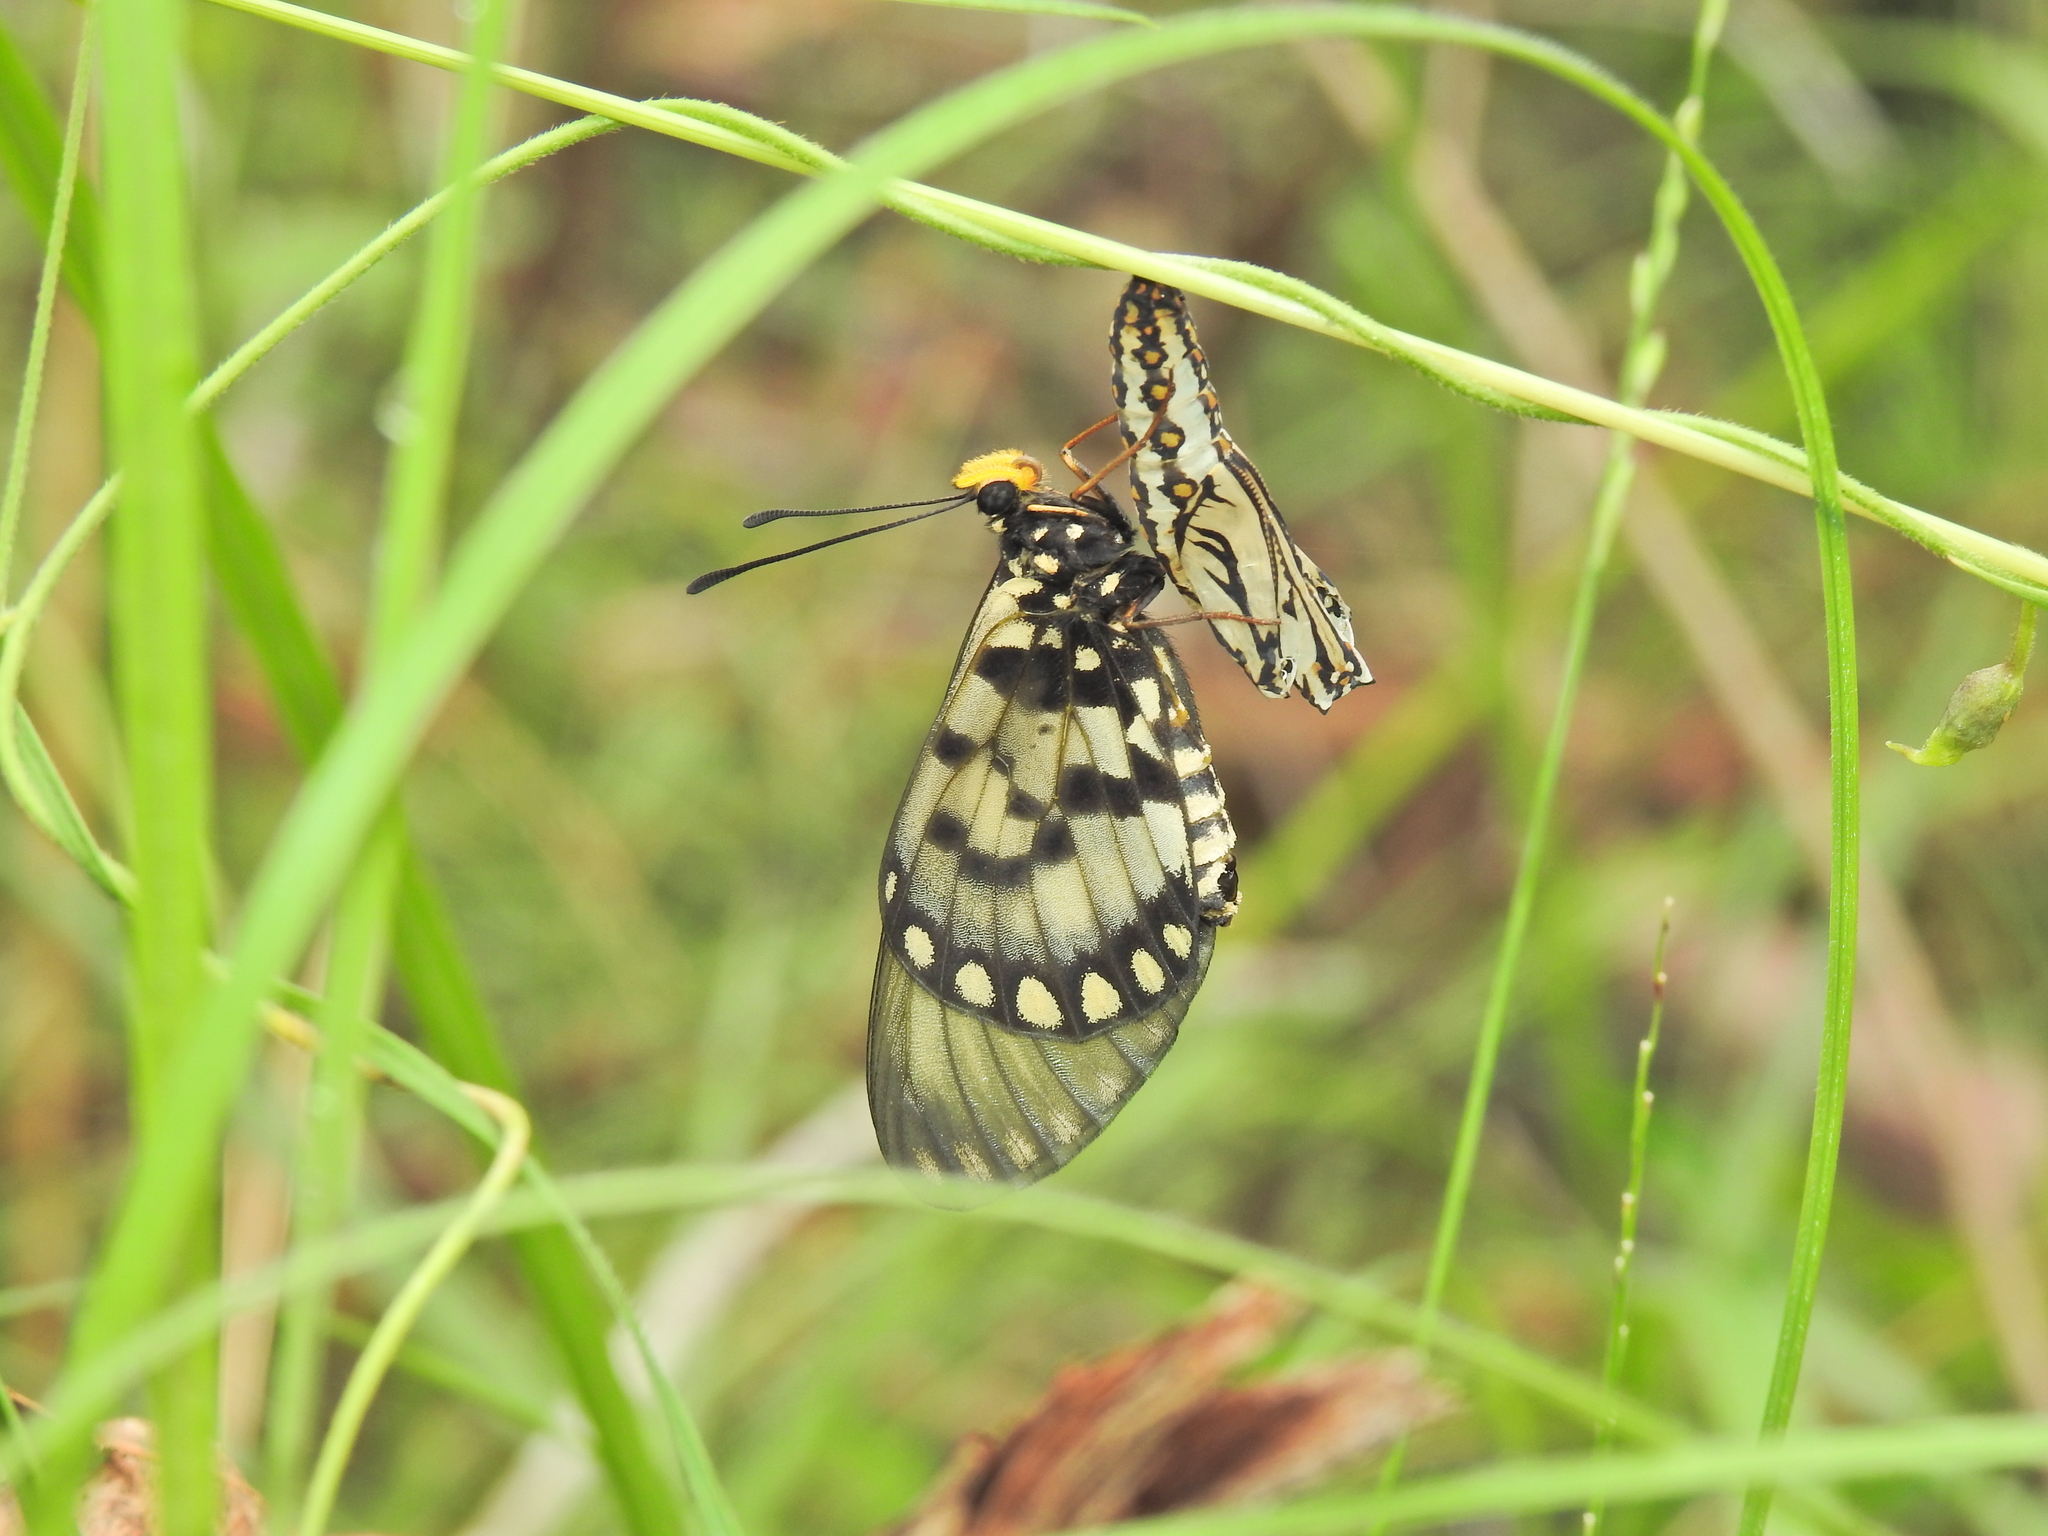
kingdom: Animalia
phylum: Arthropoda
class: Insecta
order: Lepidoptera
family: Nymphalidae
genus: Acraea
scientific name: Acraea andromacha
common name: Glasswing
